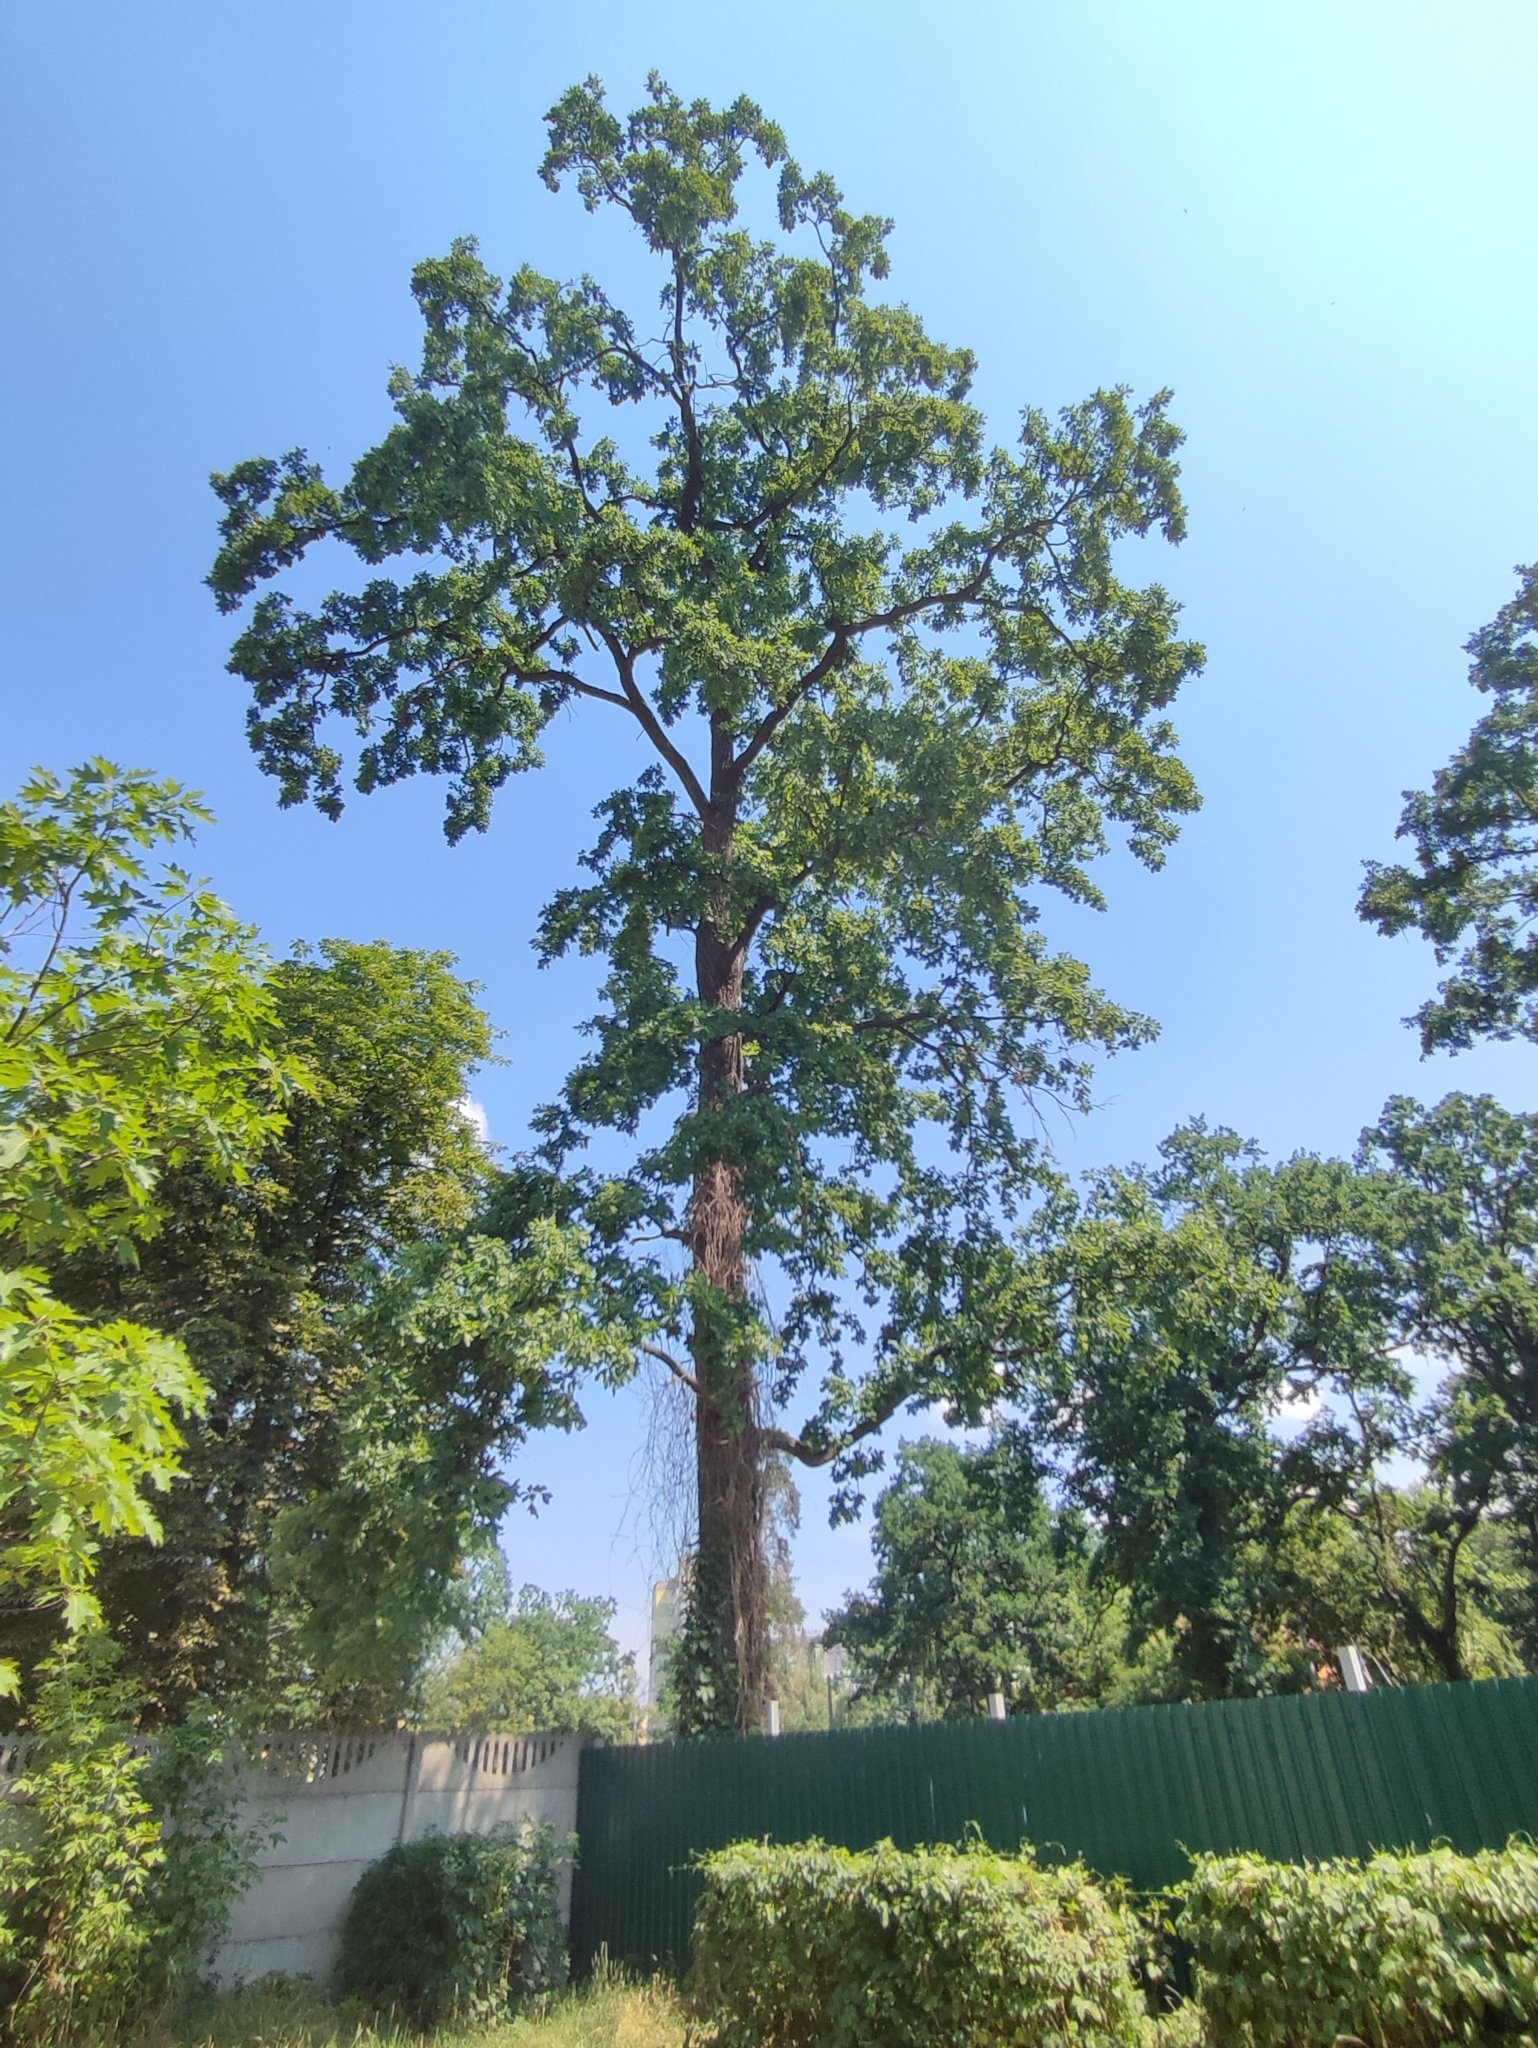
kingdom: Plantae
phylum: Tracheophyta
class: Magnoliopsida
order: Fagales
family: Fagaceae
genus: Quercus
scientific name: Quercus robur
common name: Pedunculate oak
